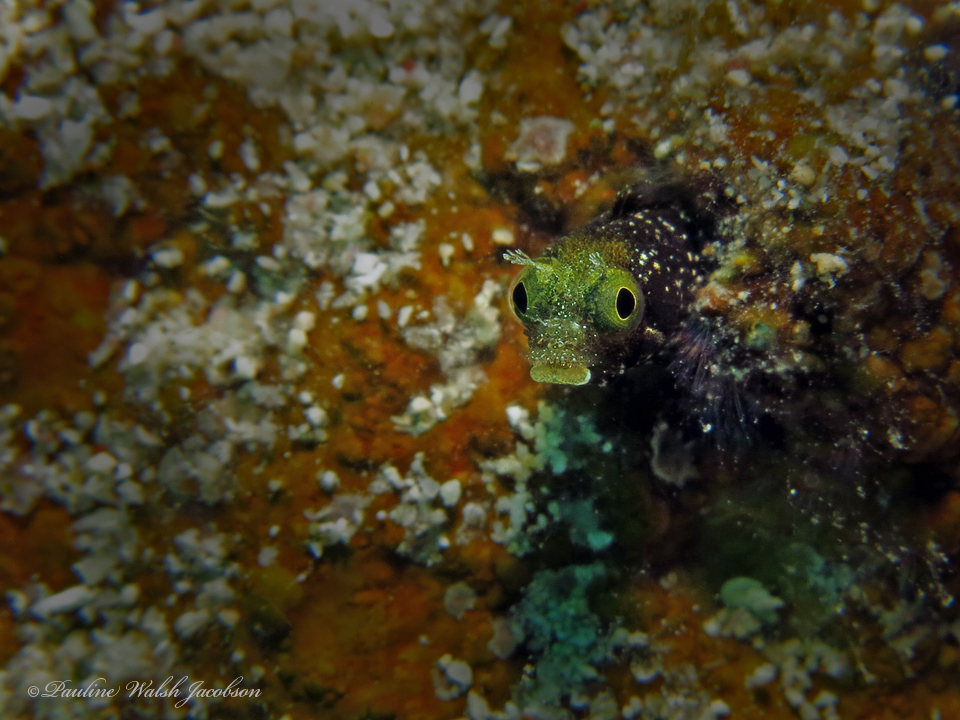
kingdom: Animalia
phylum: Chordata
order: Perciformes
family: Chaenopsidae
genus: Acanthemblemaria
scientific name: Acanthemblemaria spinosa
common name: Spinyhead blenny
